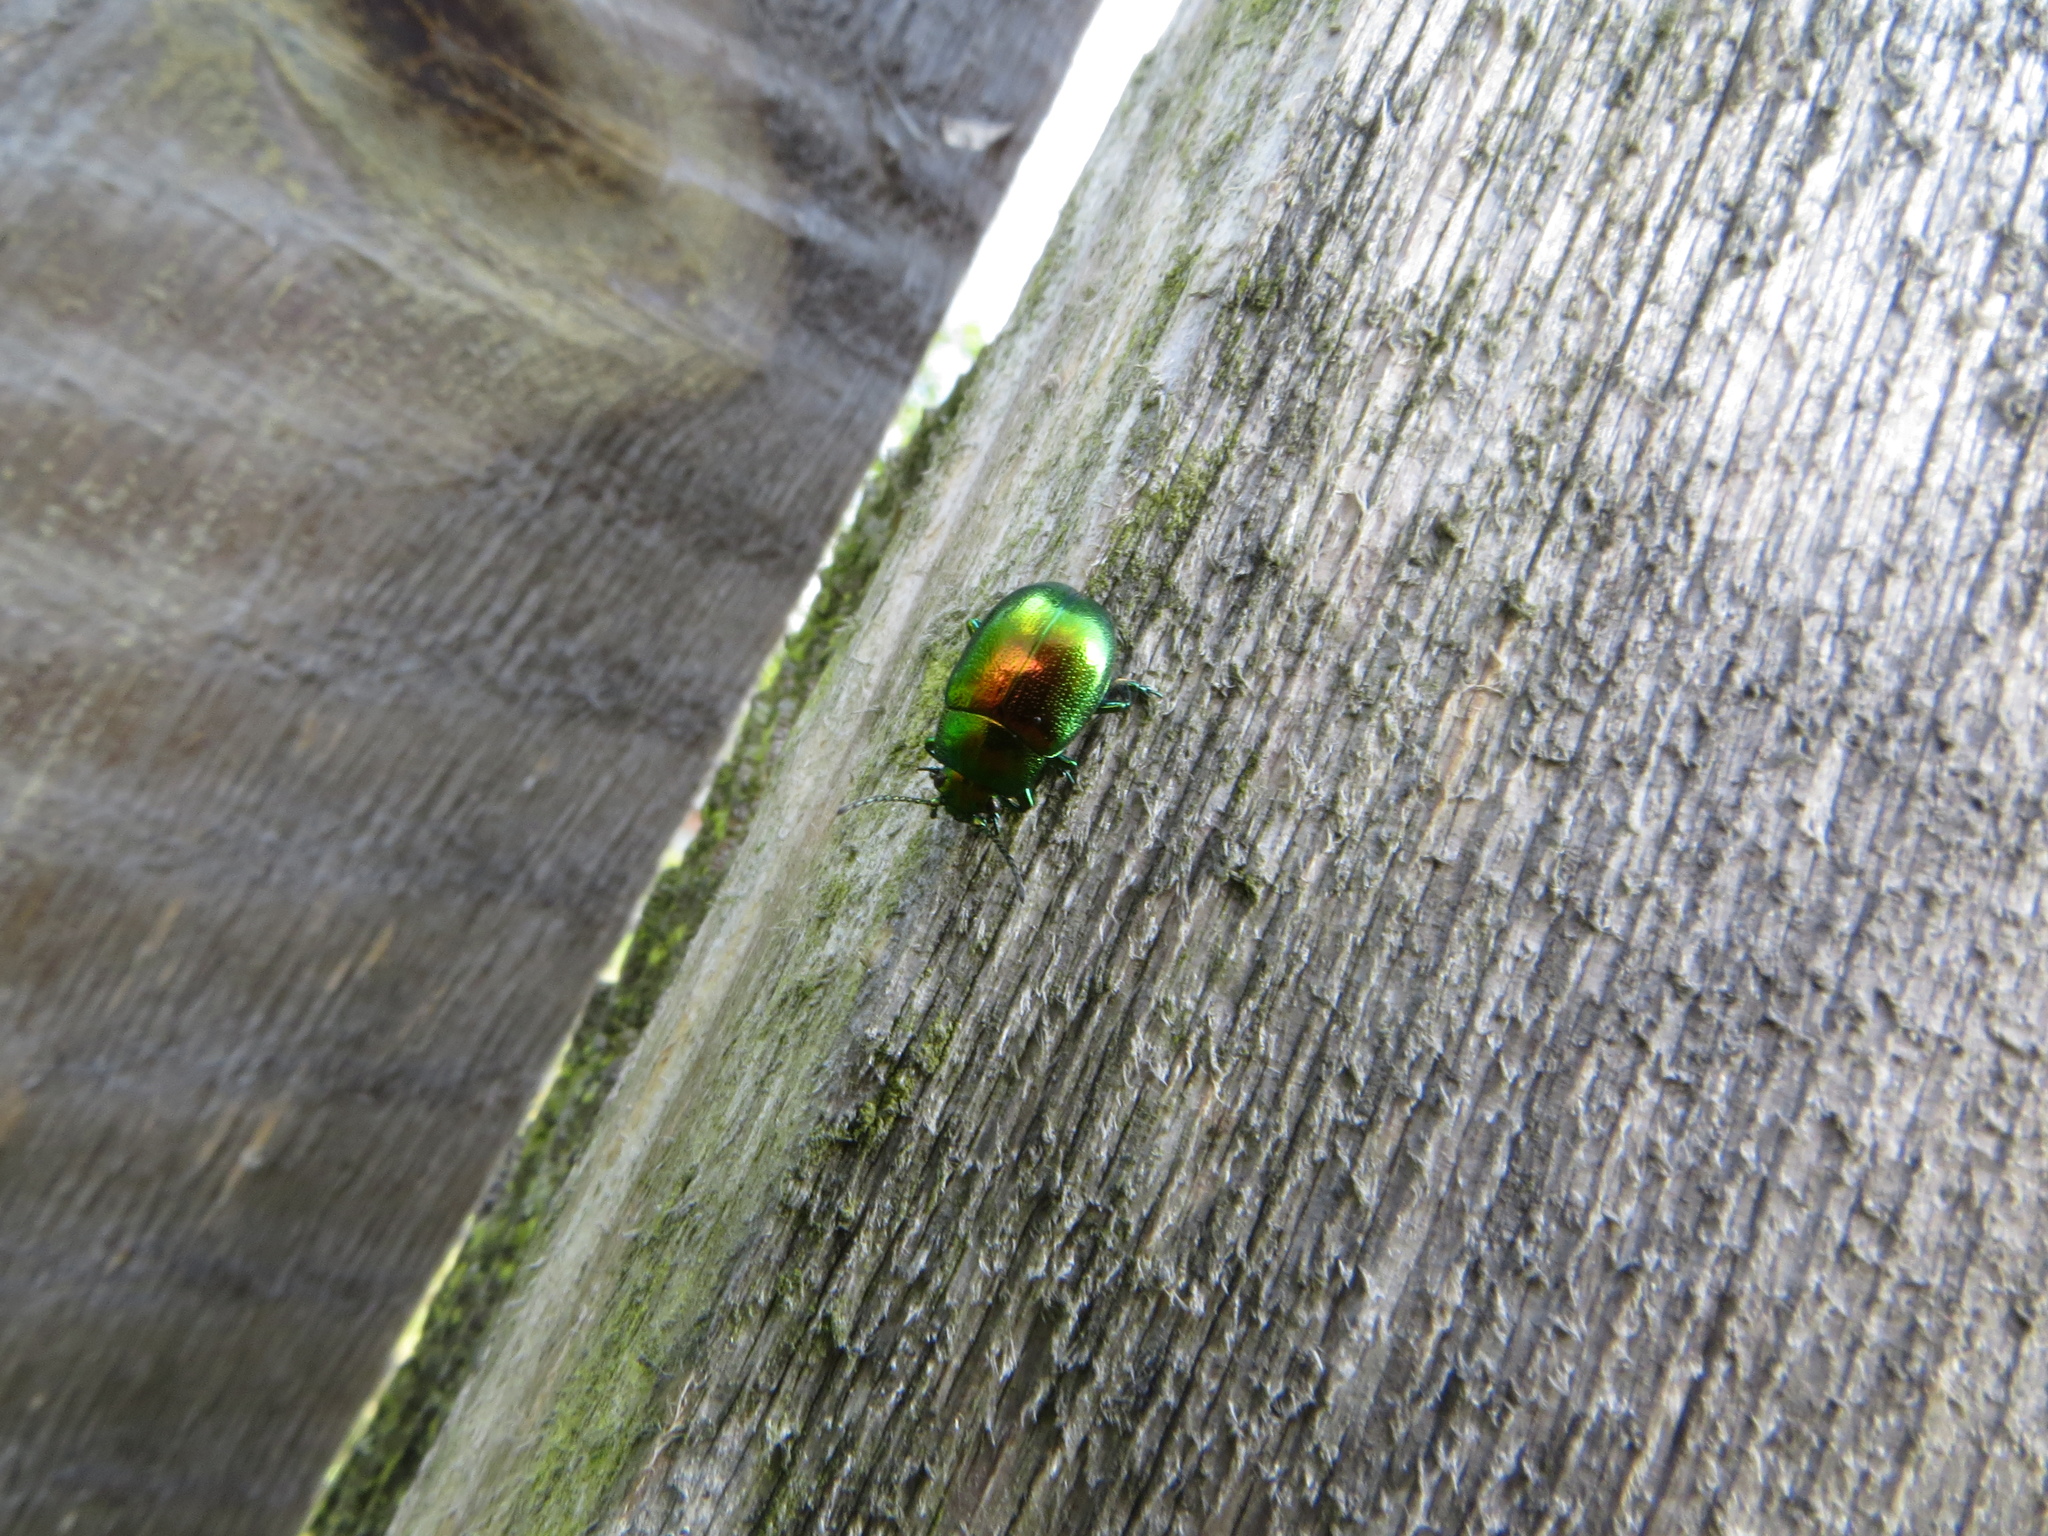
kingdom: Animalia
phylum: Arthropoda
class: Insecta
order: Coleoptera
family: Chrysomelidae
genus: Chrysolina
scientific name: Chrysolina herbacea
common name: Mint leaf beatle
